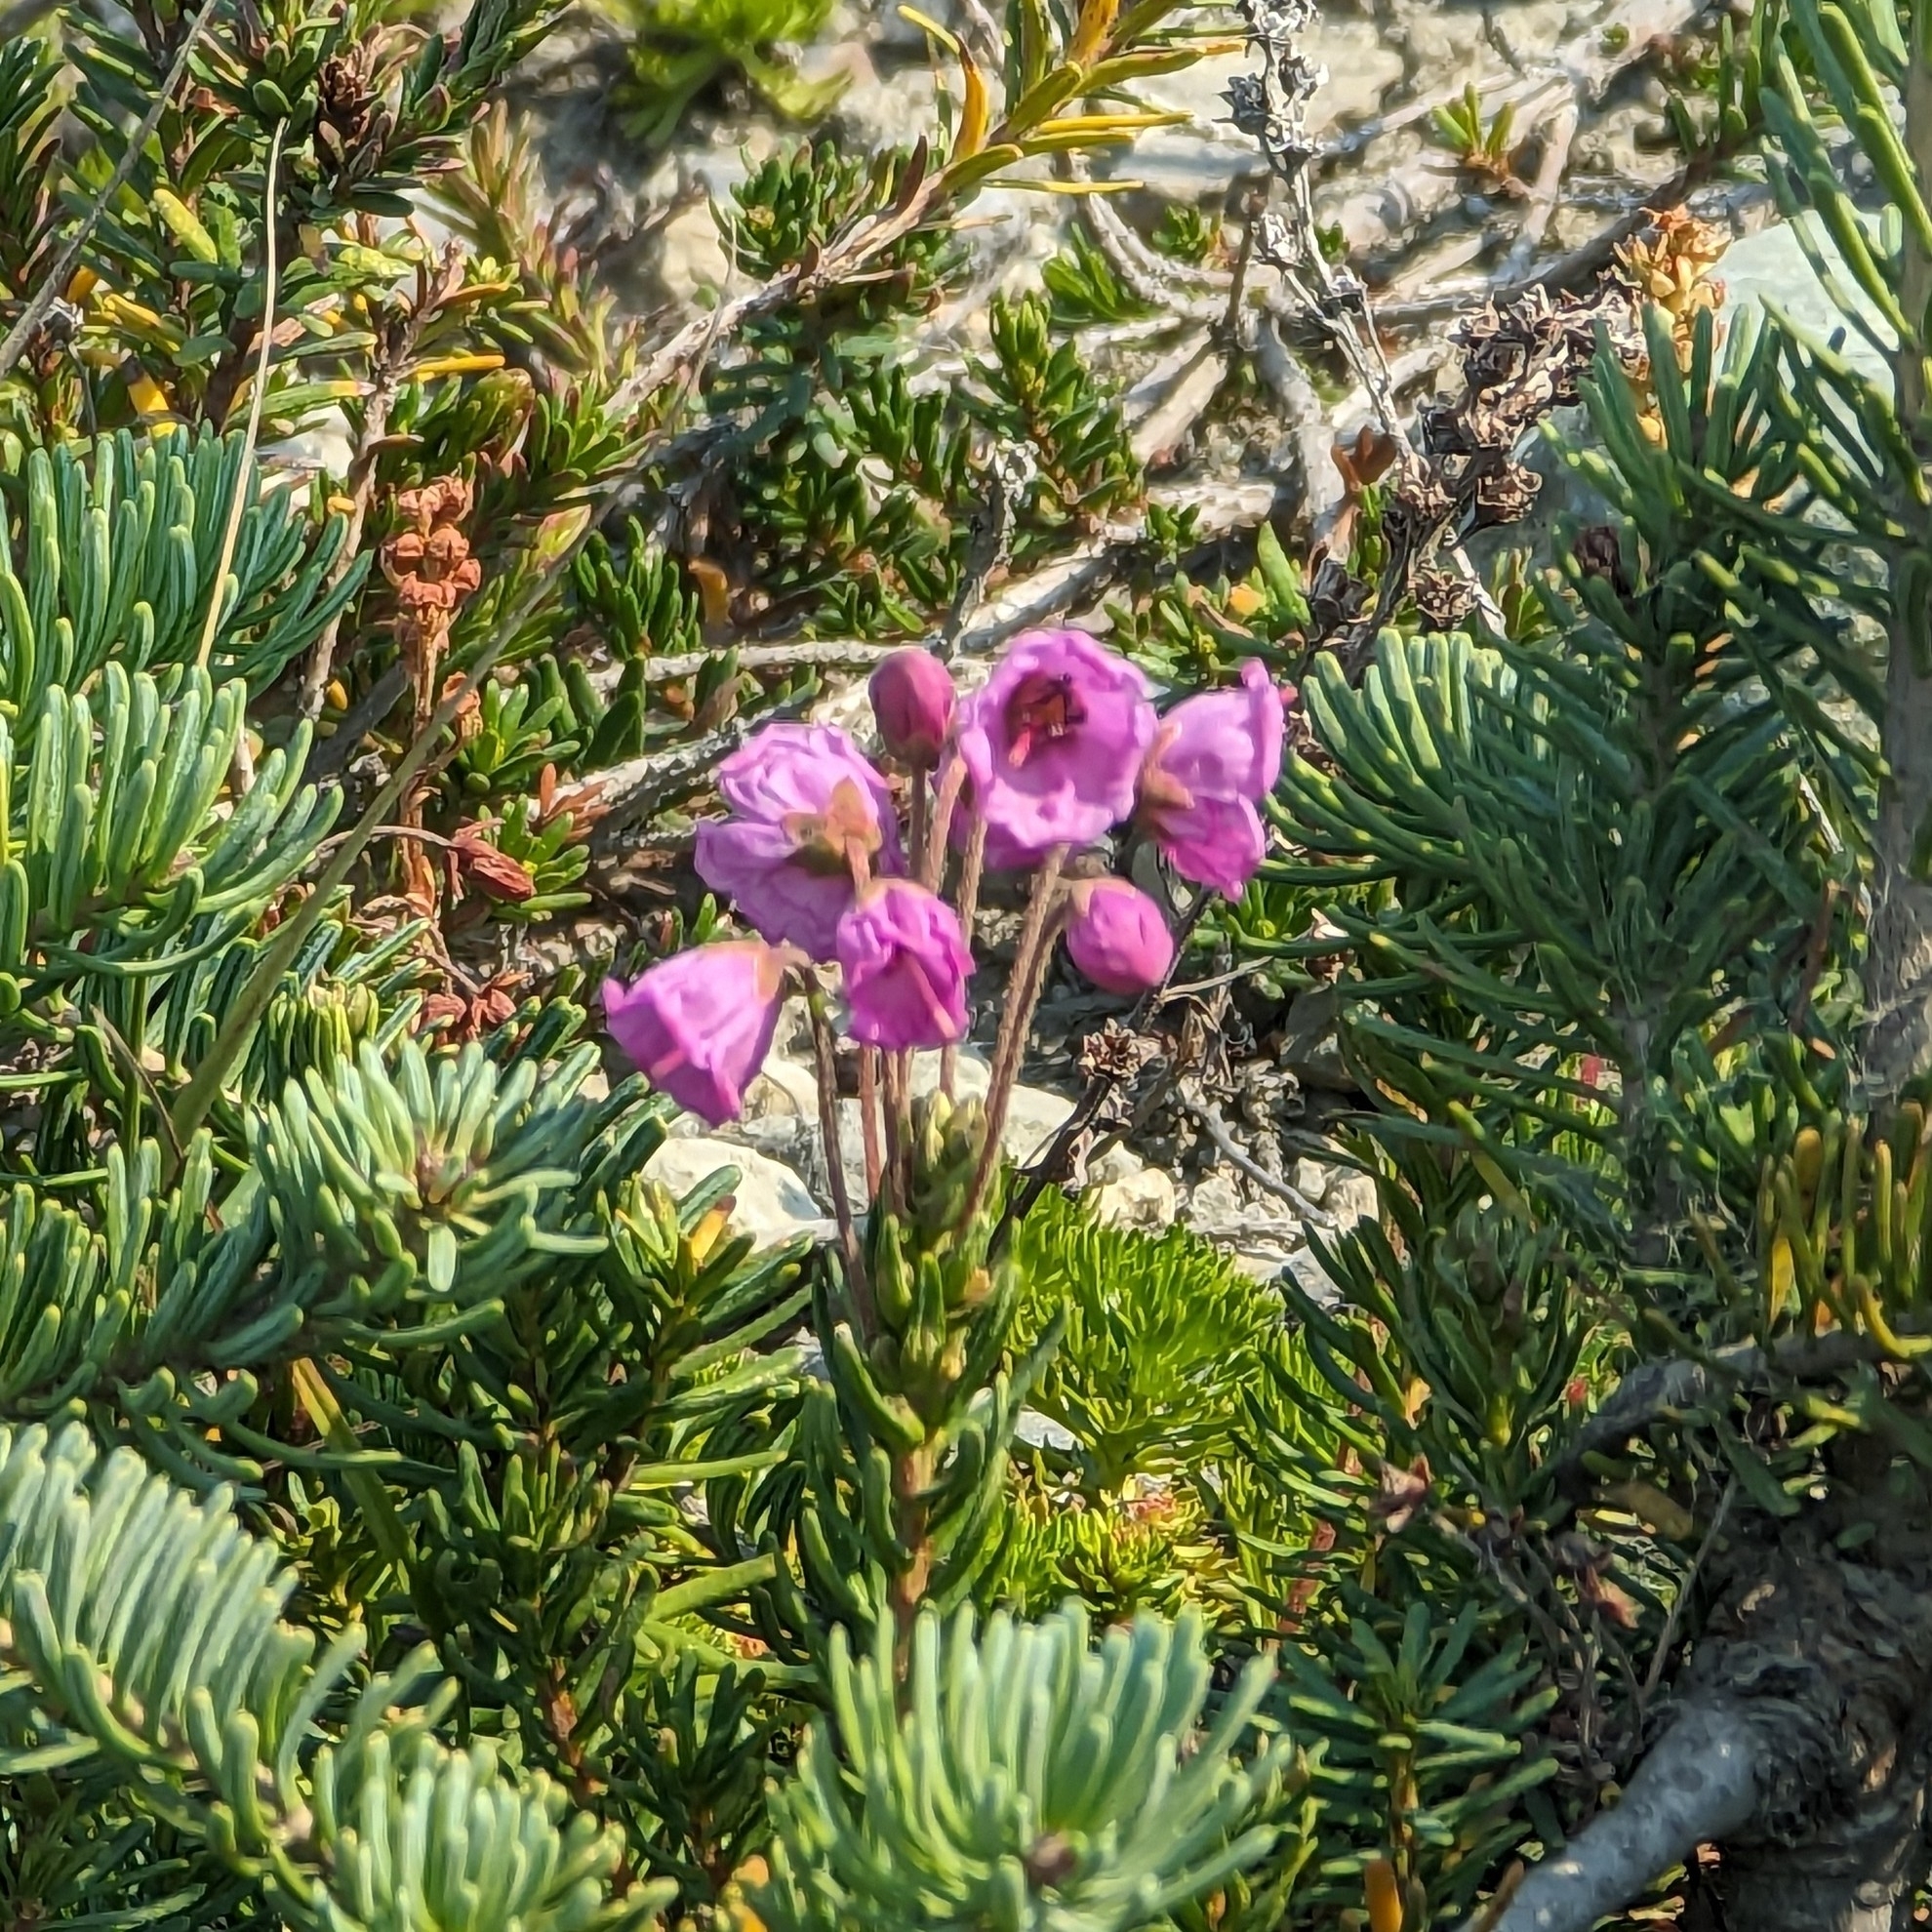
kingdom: Plantae
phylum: Tracheophyta
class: Magnoliopsida
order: Ericales
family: Ericaceae
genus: Phyllodoce
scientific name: Phyllodoce empetriformis
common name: Pink mountain heather
